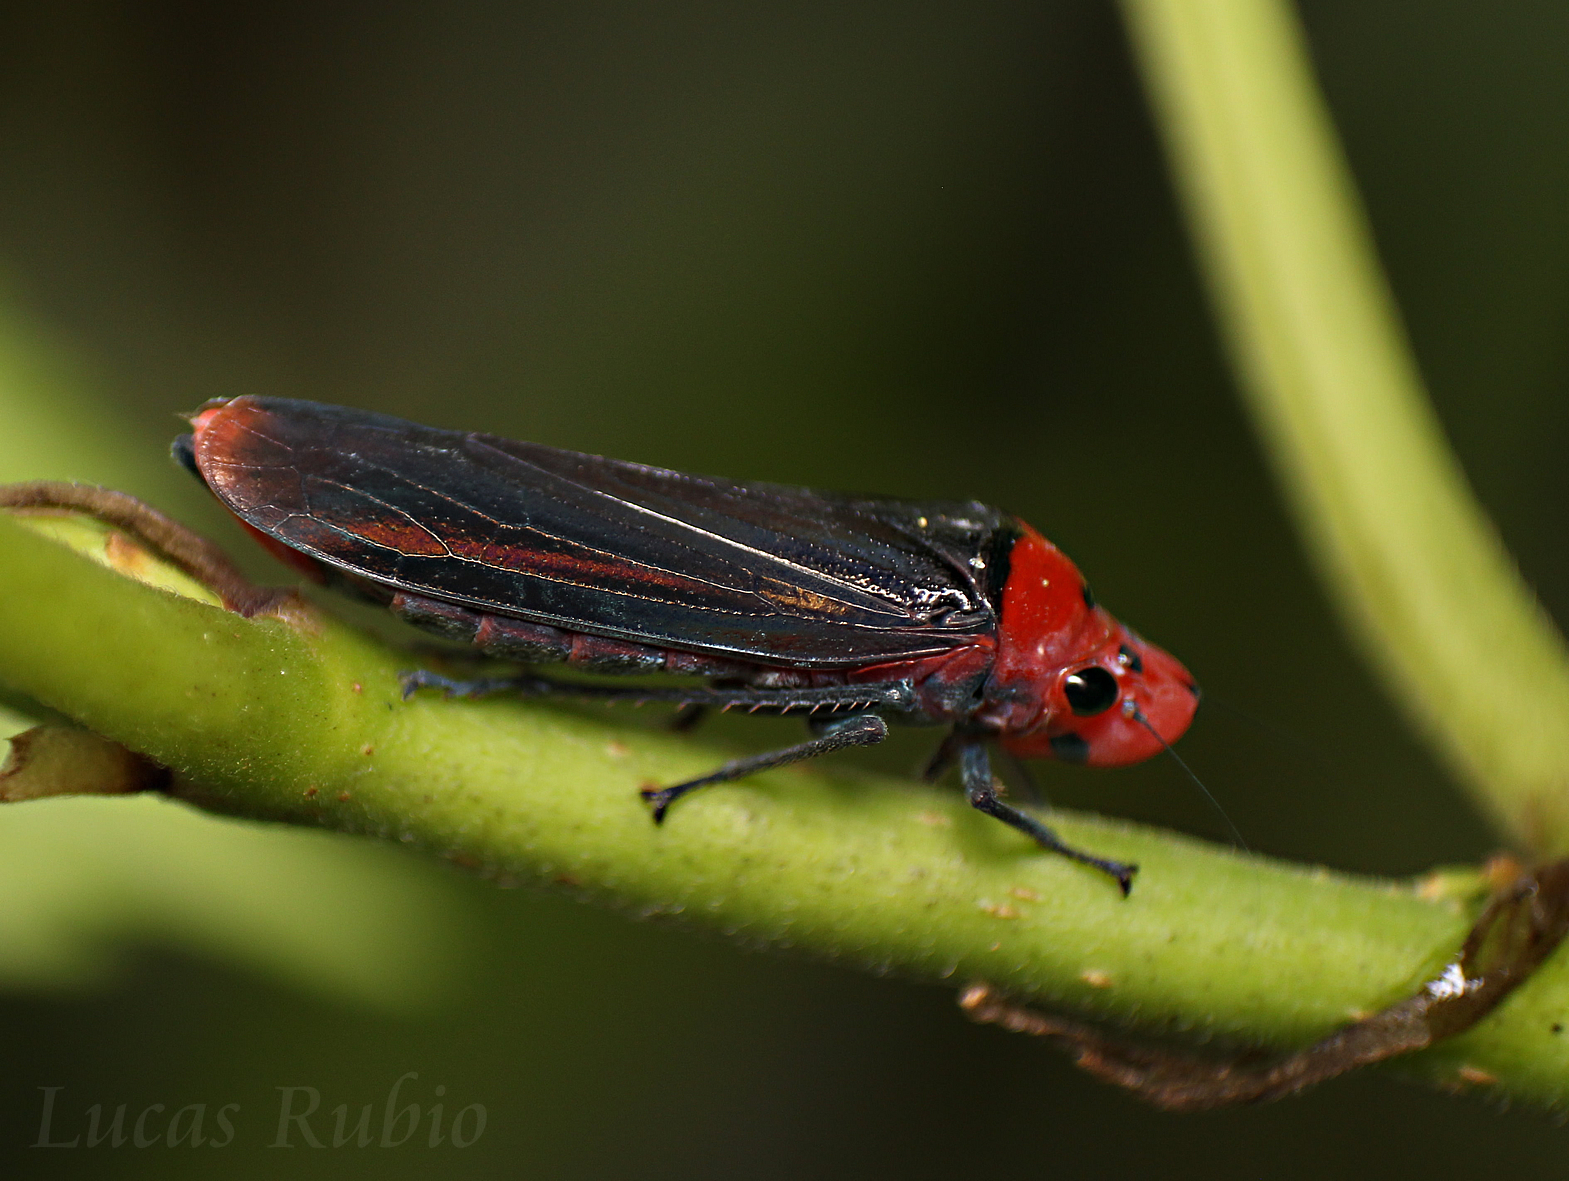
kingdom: Animalia
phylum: Arthropoda
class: Insecta
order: Hemiptera
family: Cicadellidae
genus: Aulacizes
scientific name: Aulacizes quadripunctata
